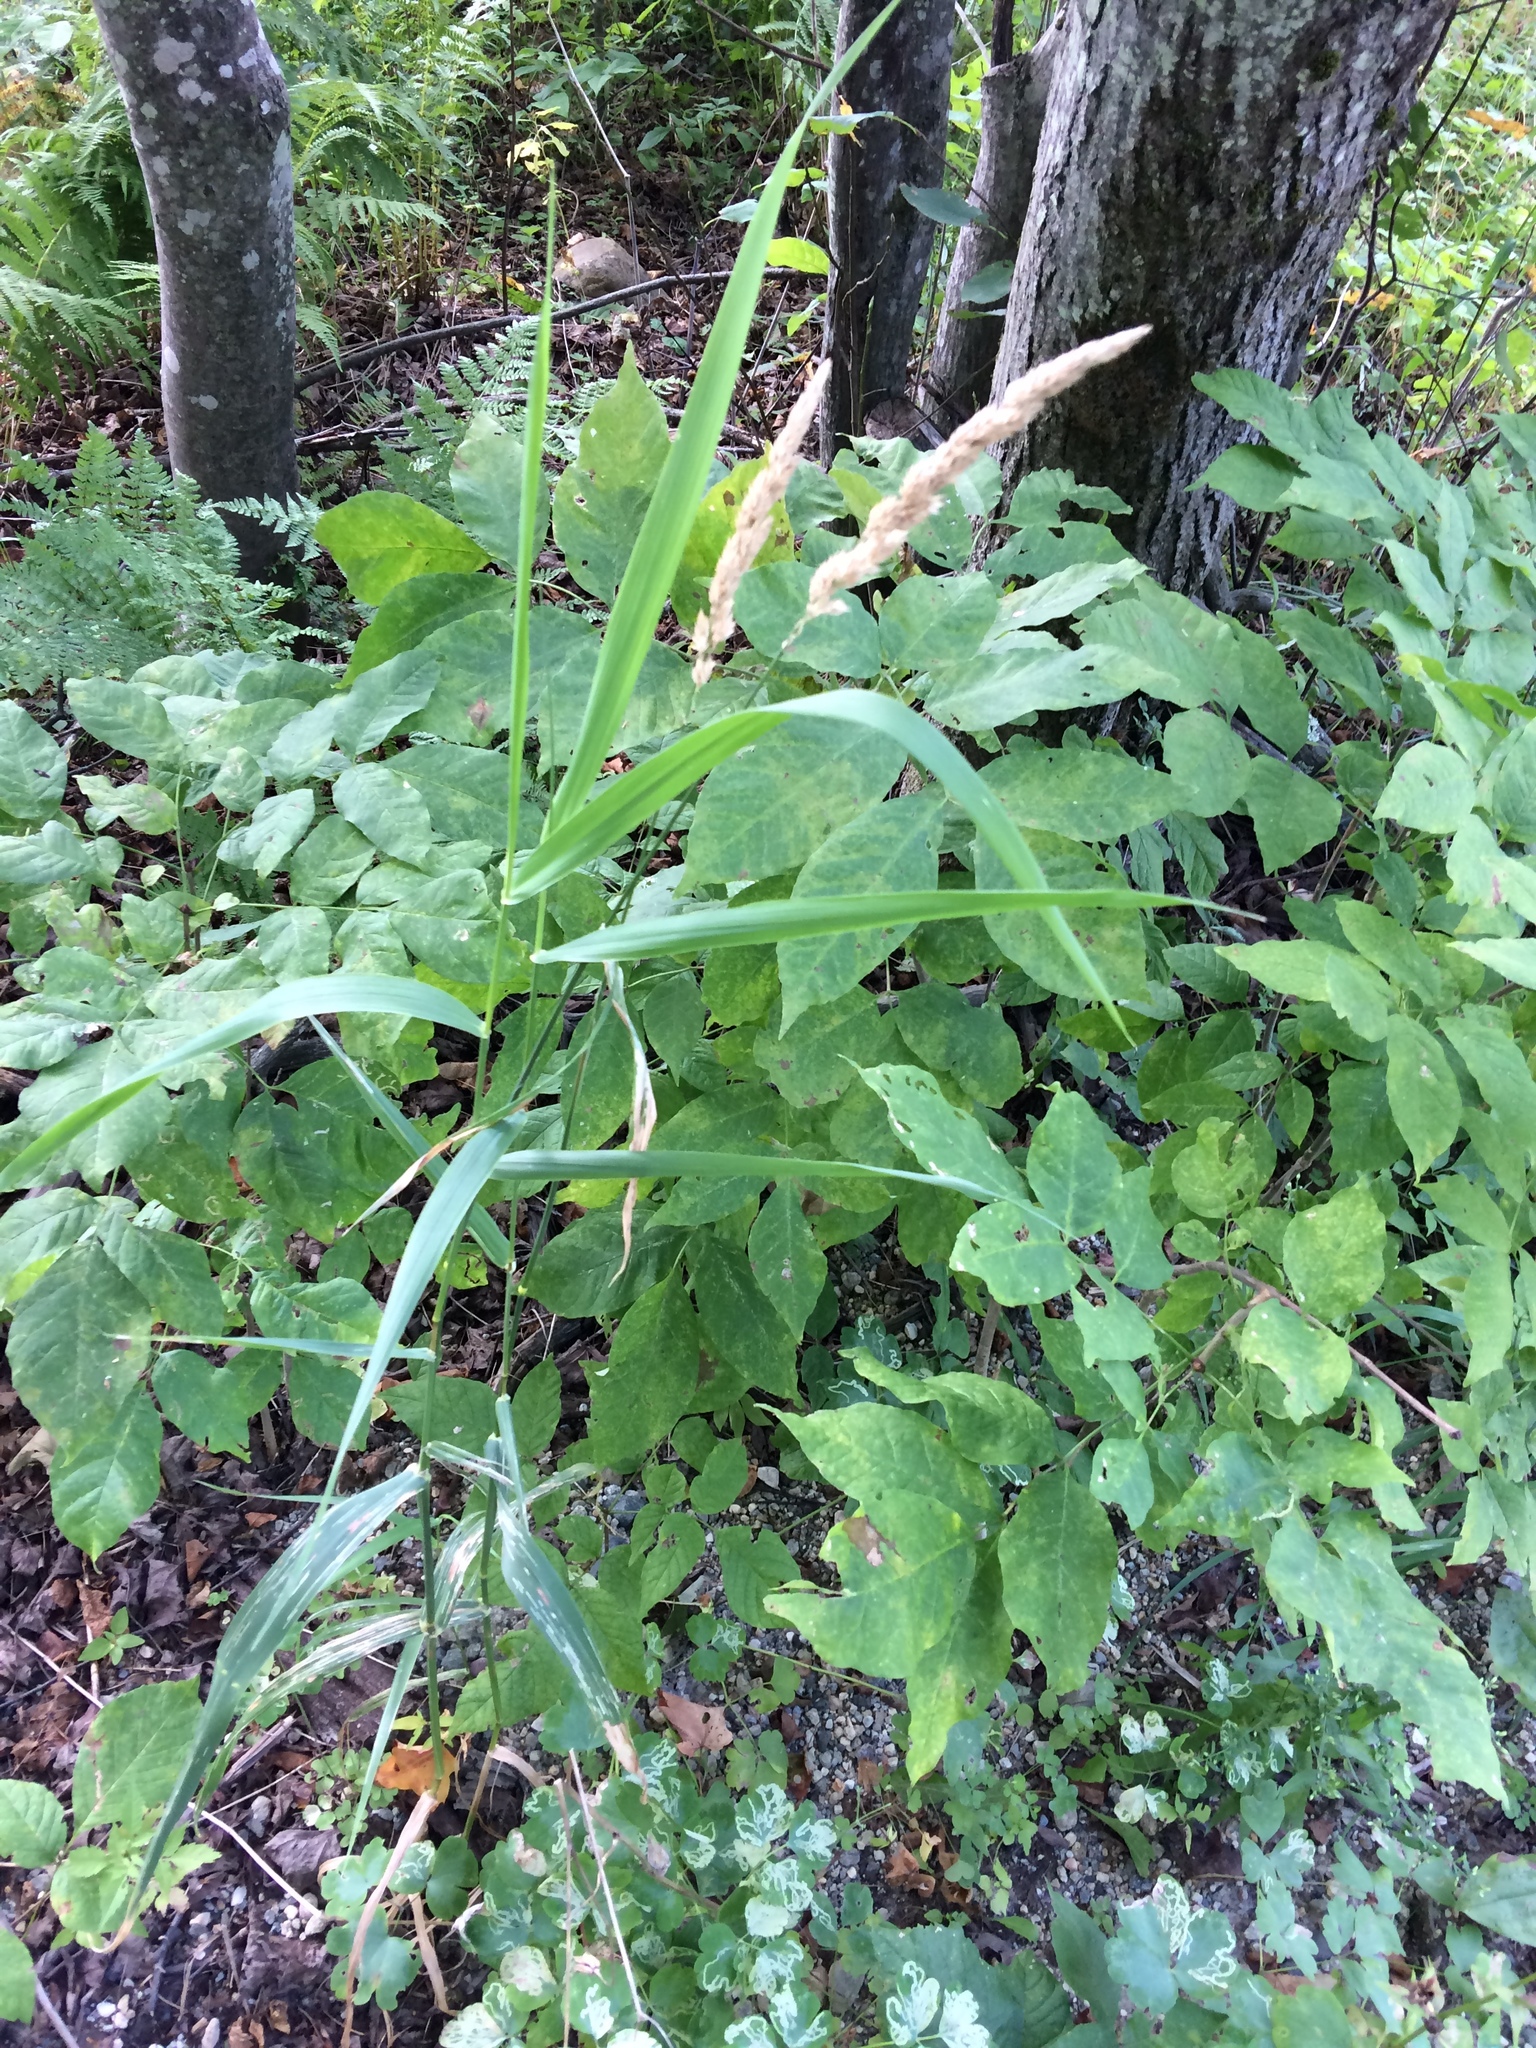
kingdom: Plantae
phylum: Tracheophyta
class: Liliopsida
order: Poales
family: Poaceae
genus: Phalaris
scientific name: Phalaris arundinacea
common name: Reed canary-grass
